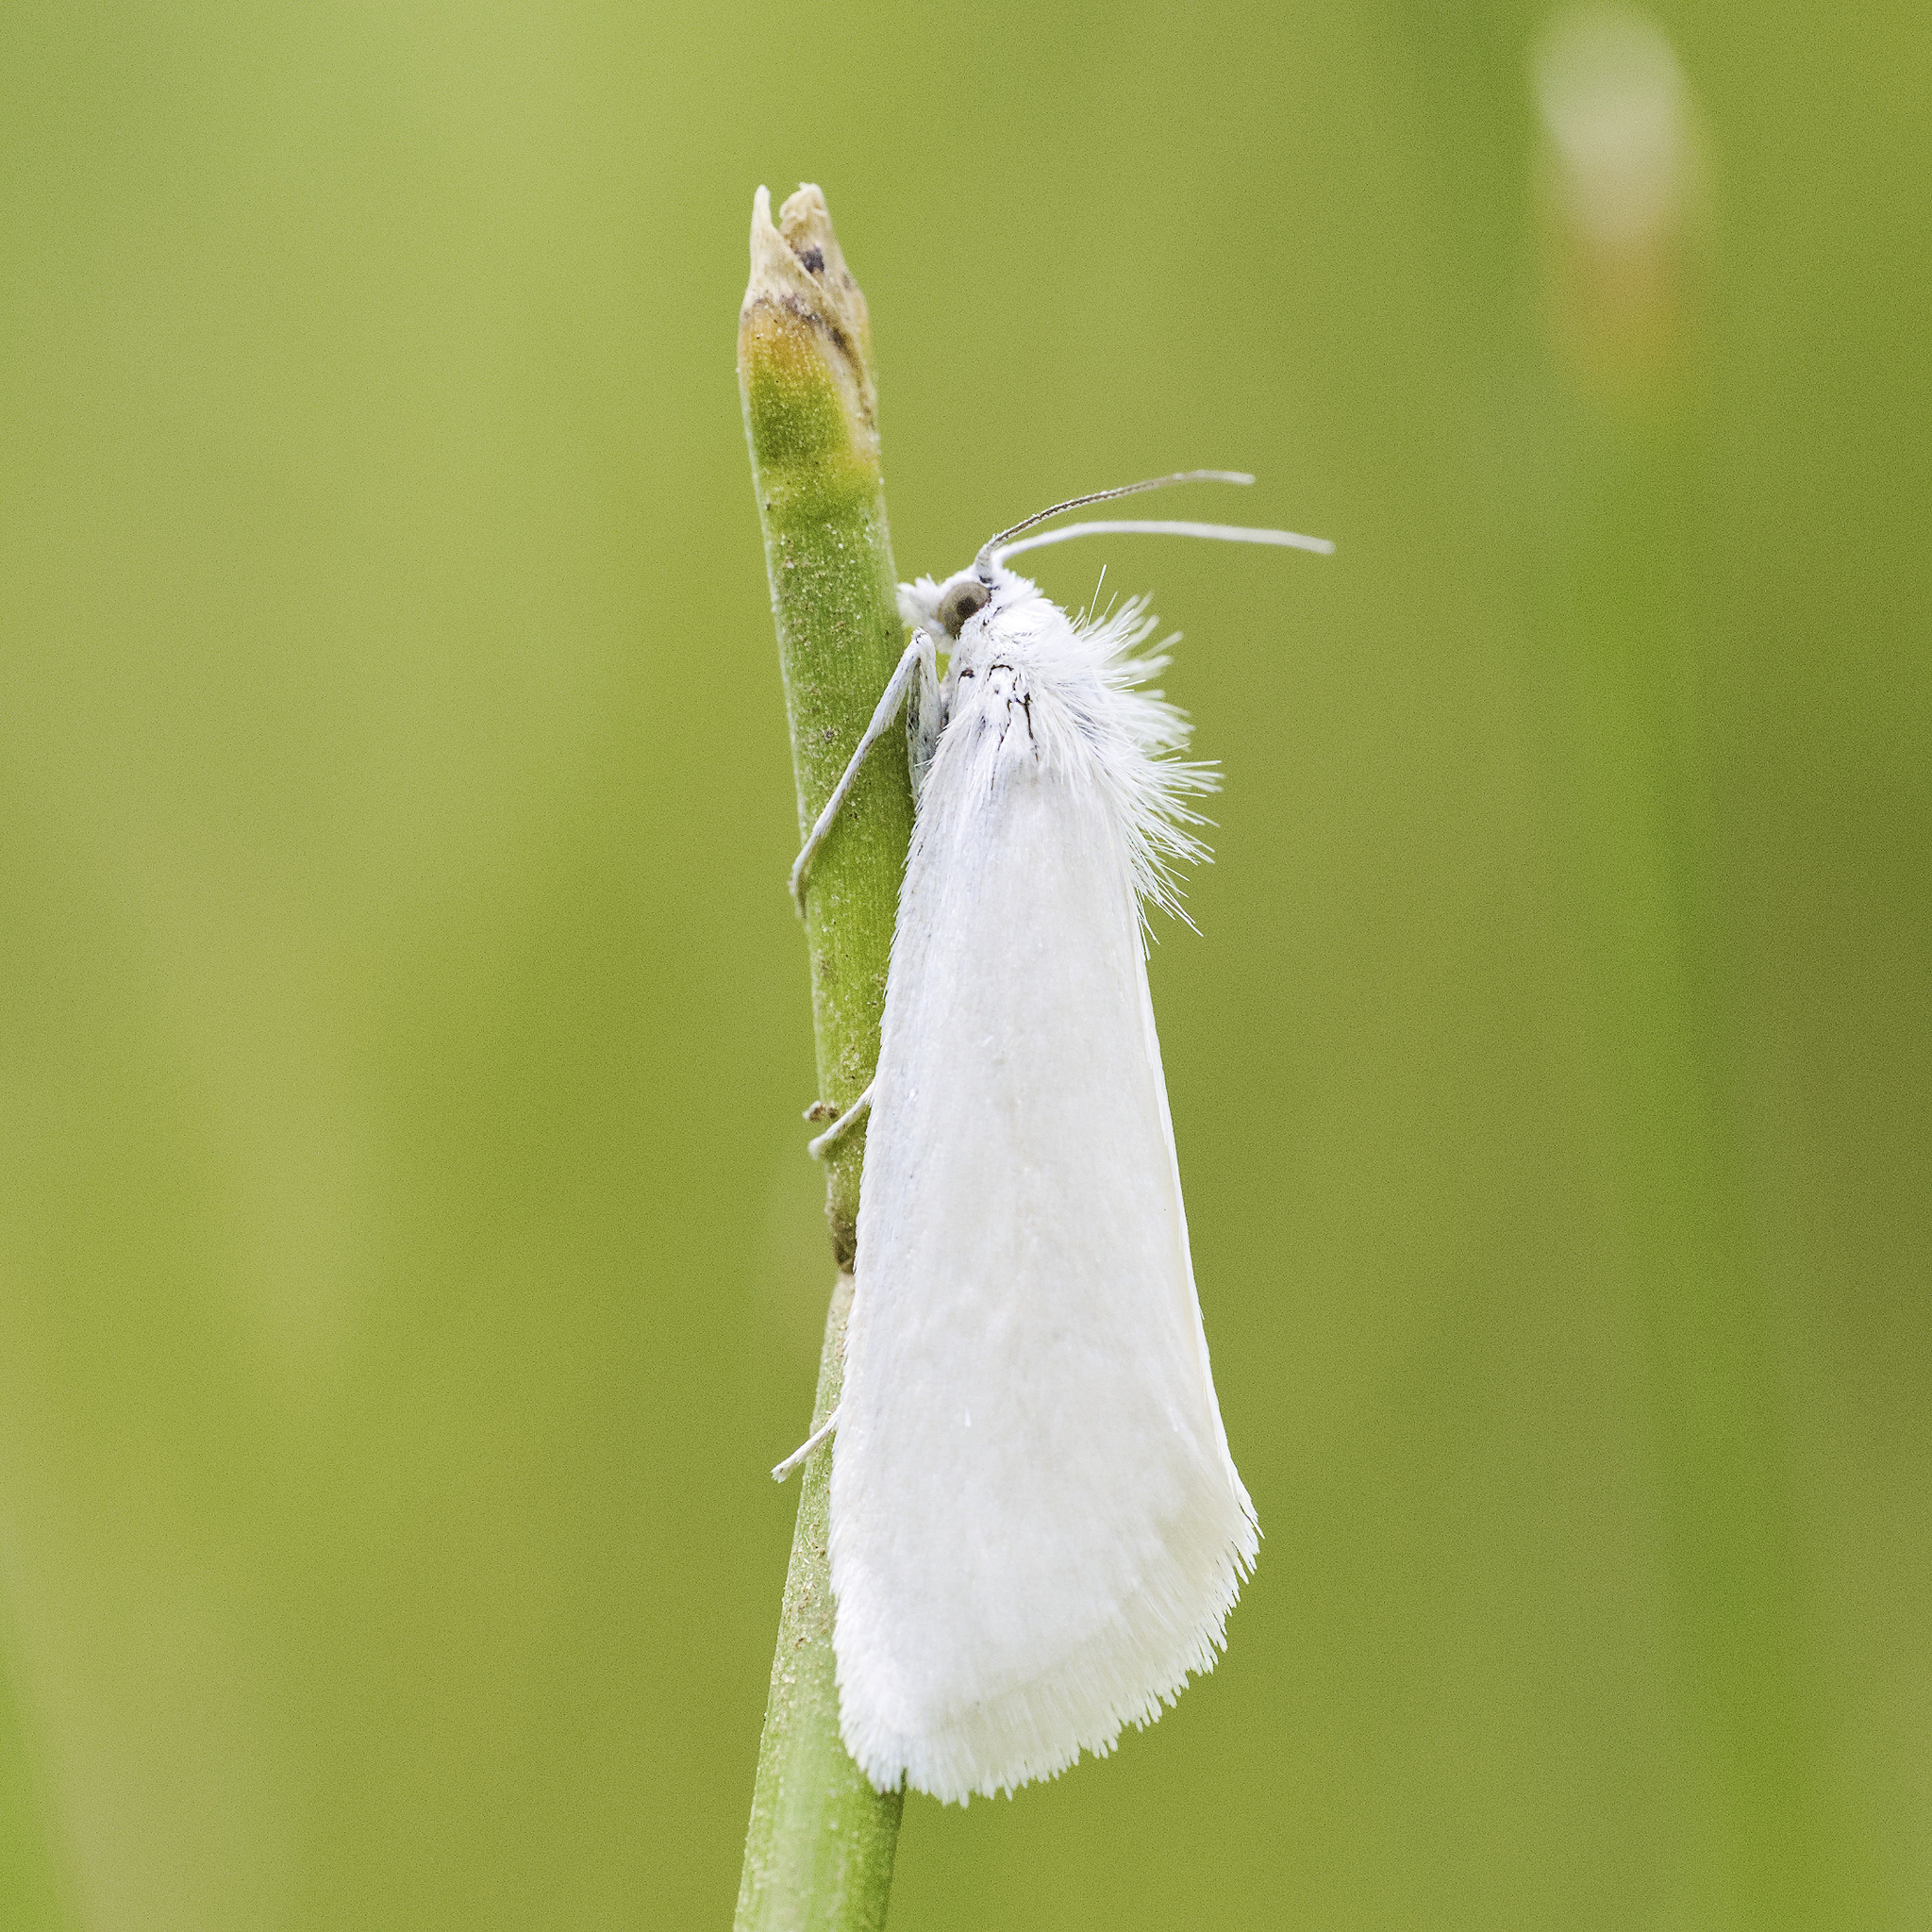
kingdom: Animalia
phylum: Arthropoda
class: Insecta
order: Lepidoptera
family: Crambidae
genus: Tipanaea
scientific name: Tipanaea patulella
